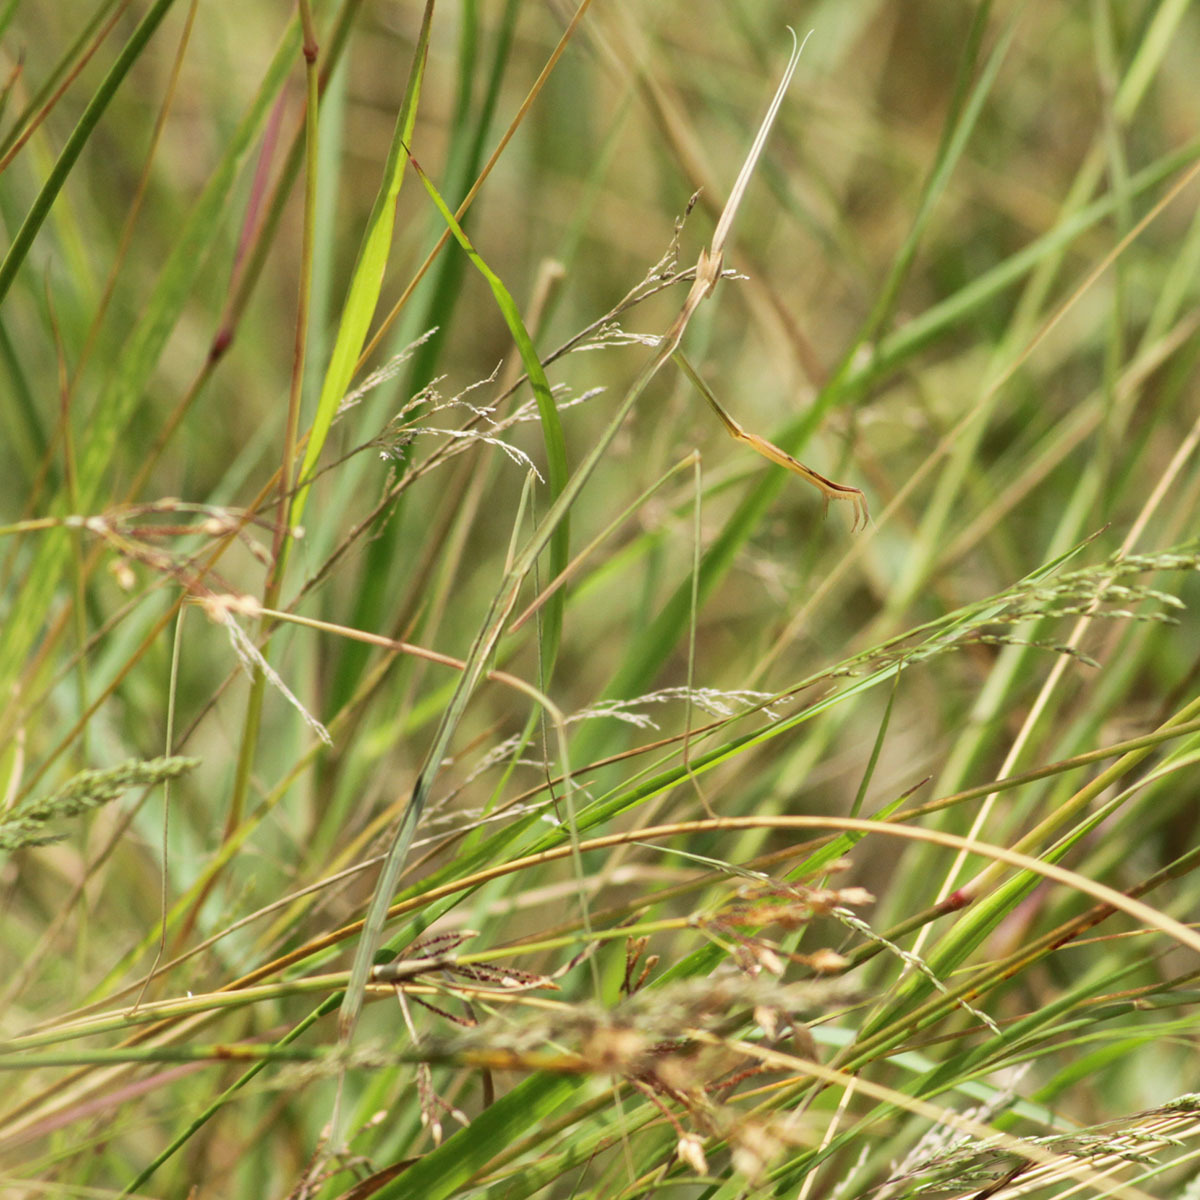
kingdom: Animalia
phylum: Arthropoda
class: Insecta
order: Mantodea
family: Eremiaphilidae
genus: Schizocephala
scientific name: Schizocephala bicornis
